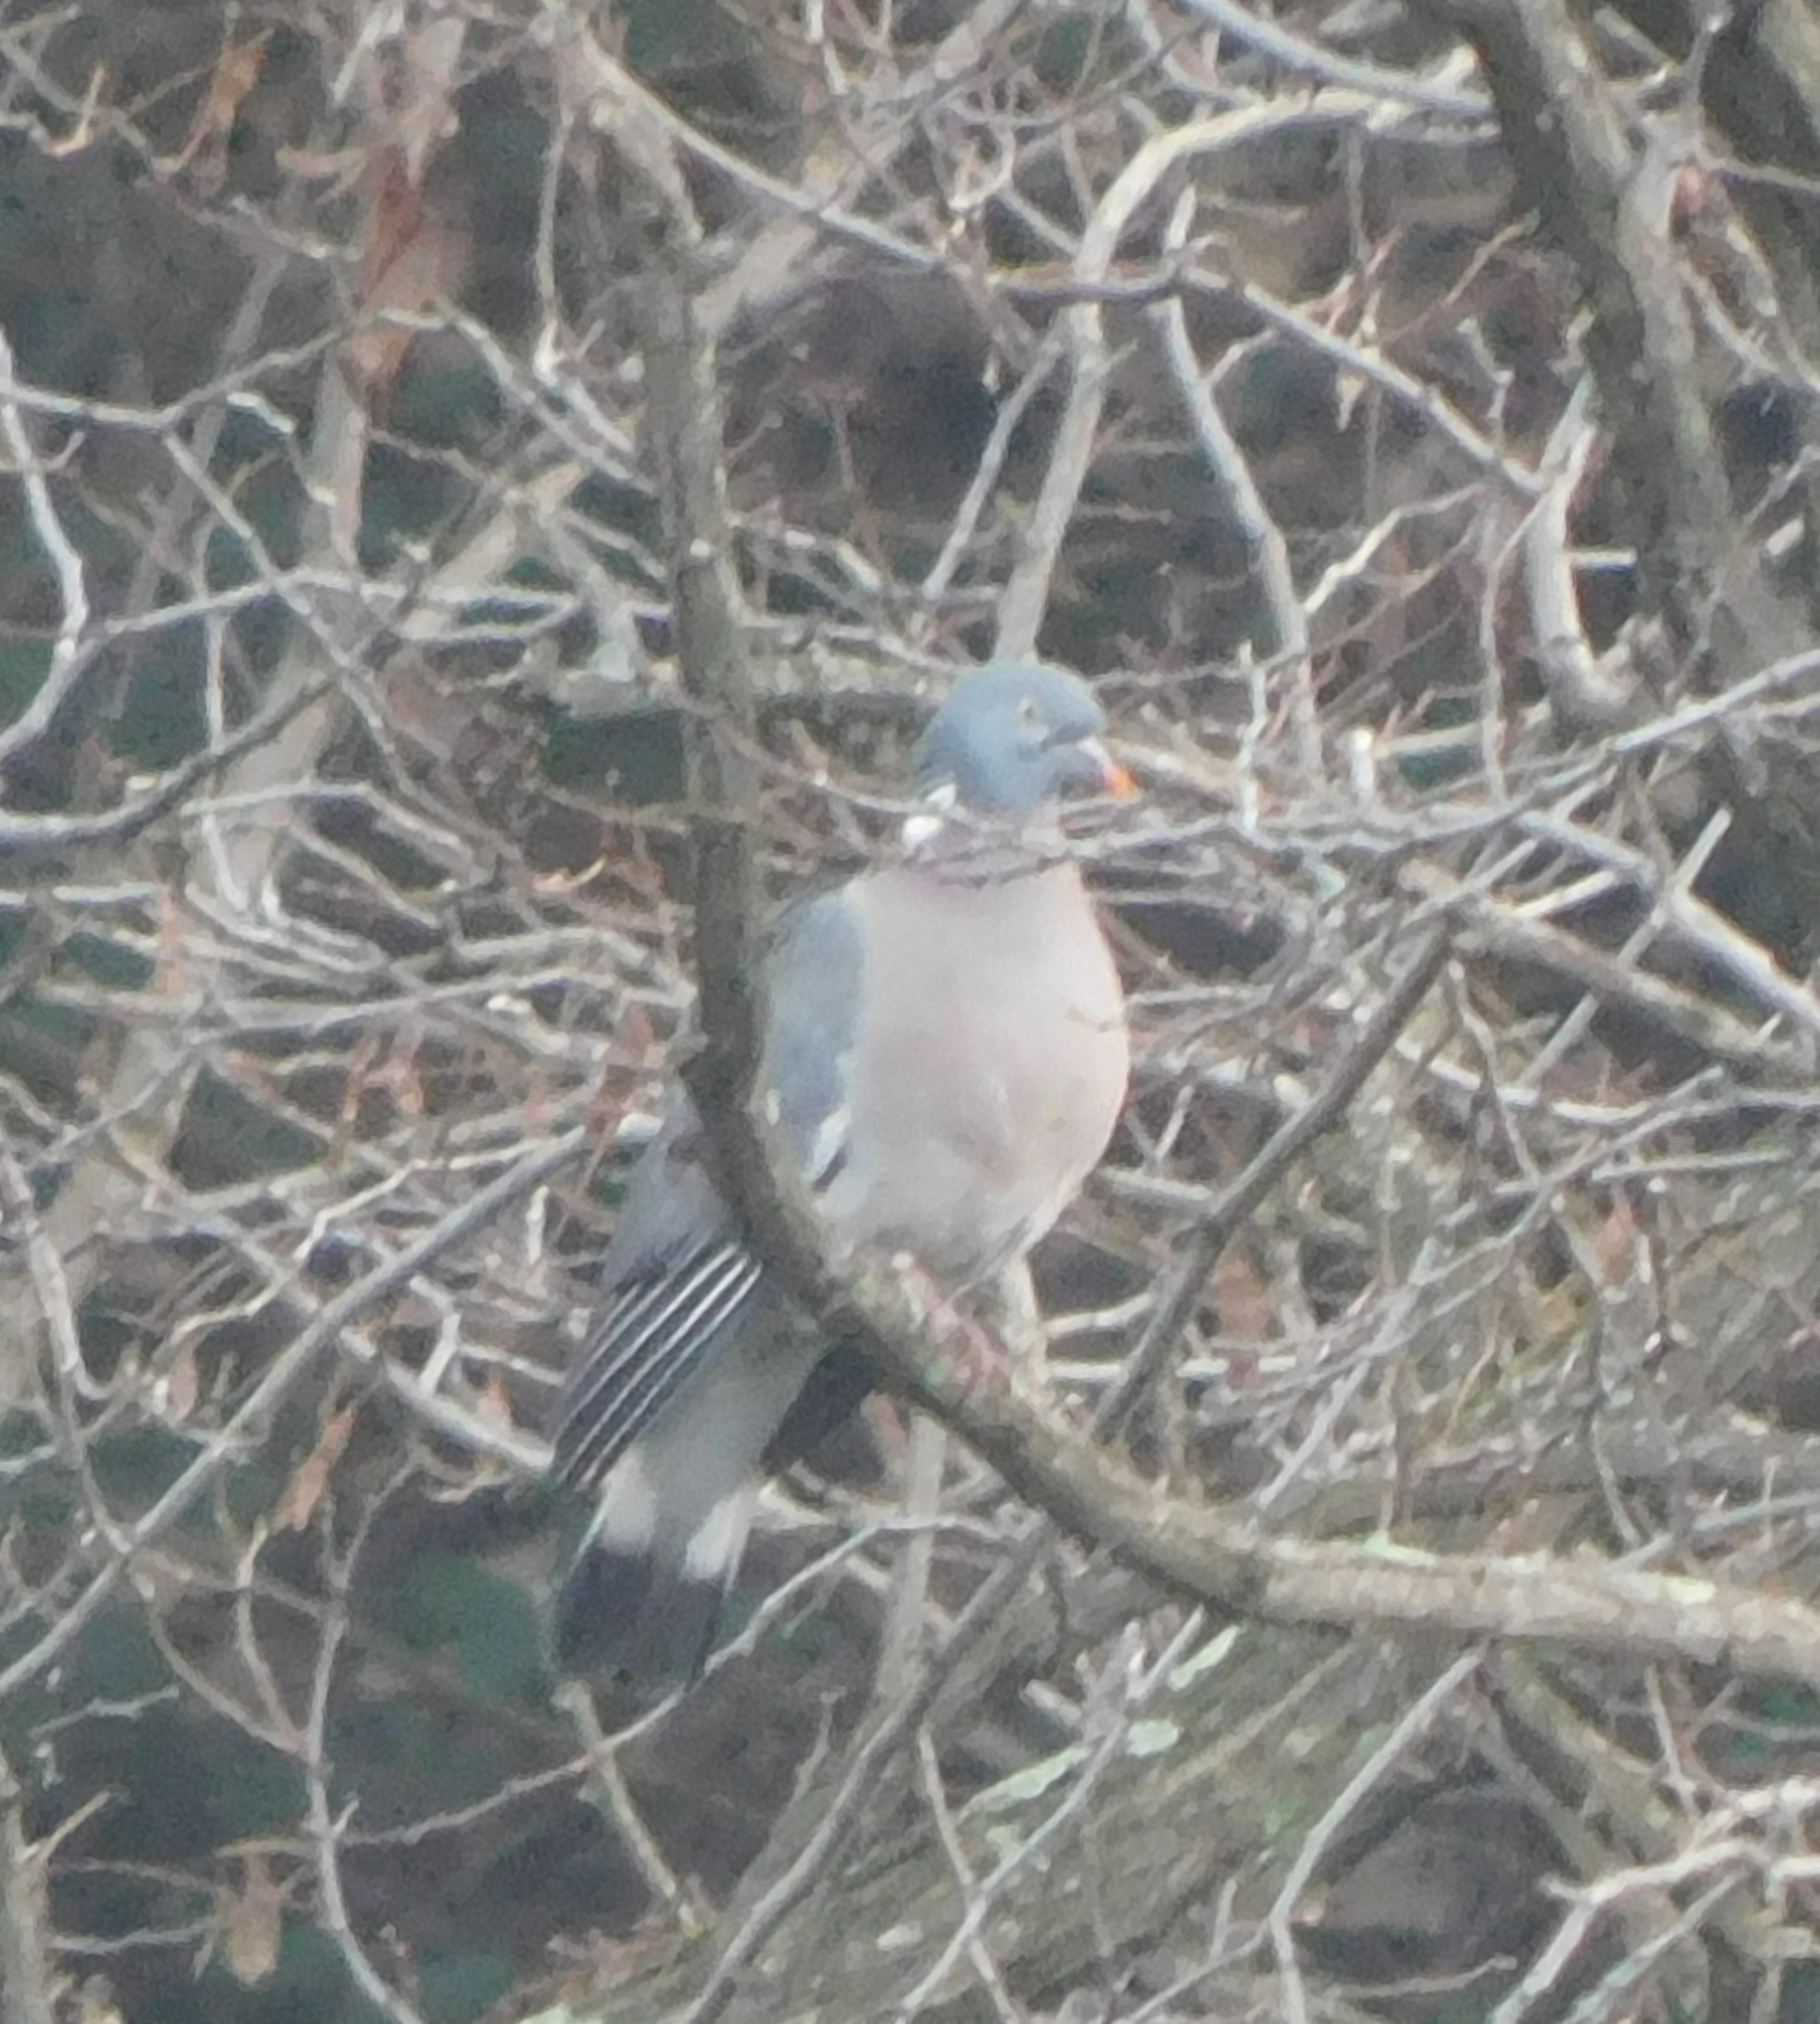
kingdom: Animalia
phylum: Chordata
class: Aves
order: Columbiformes
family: Columbidae
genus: Columba
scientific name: Columba palumbus
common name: Common wood pigeon
